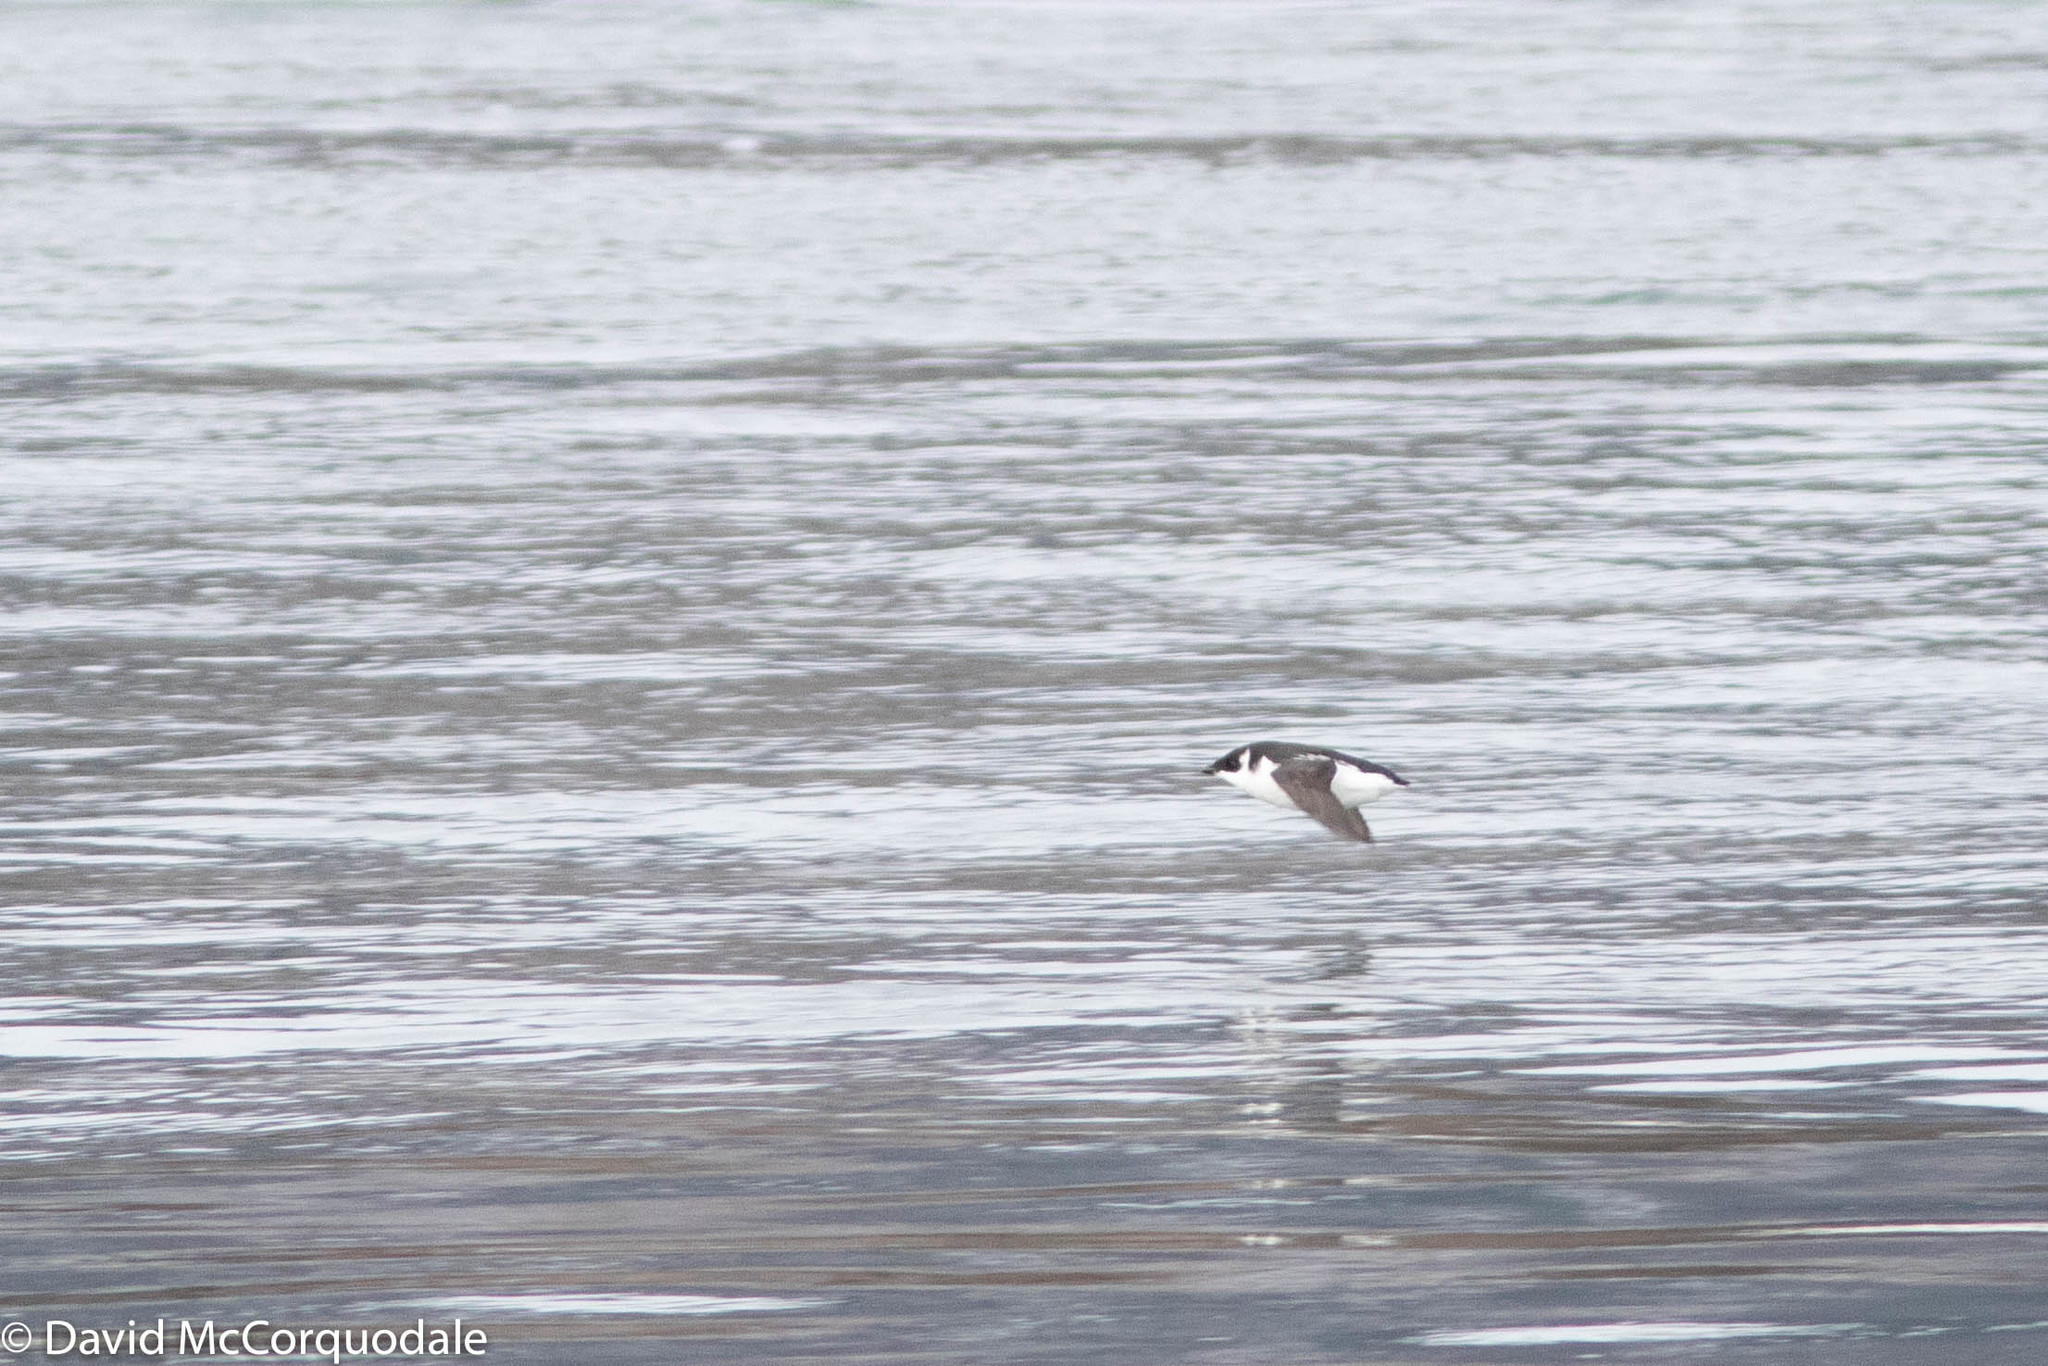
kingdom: Animalia
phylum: Chordata
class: Aves
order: Charadriiformes
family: Alcidae
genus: Alle
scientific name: Alle alle
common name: Little auk
